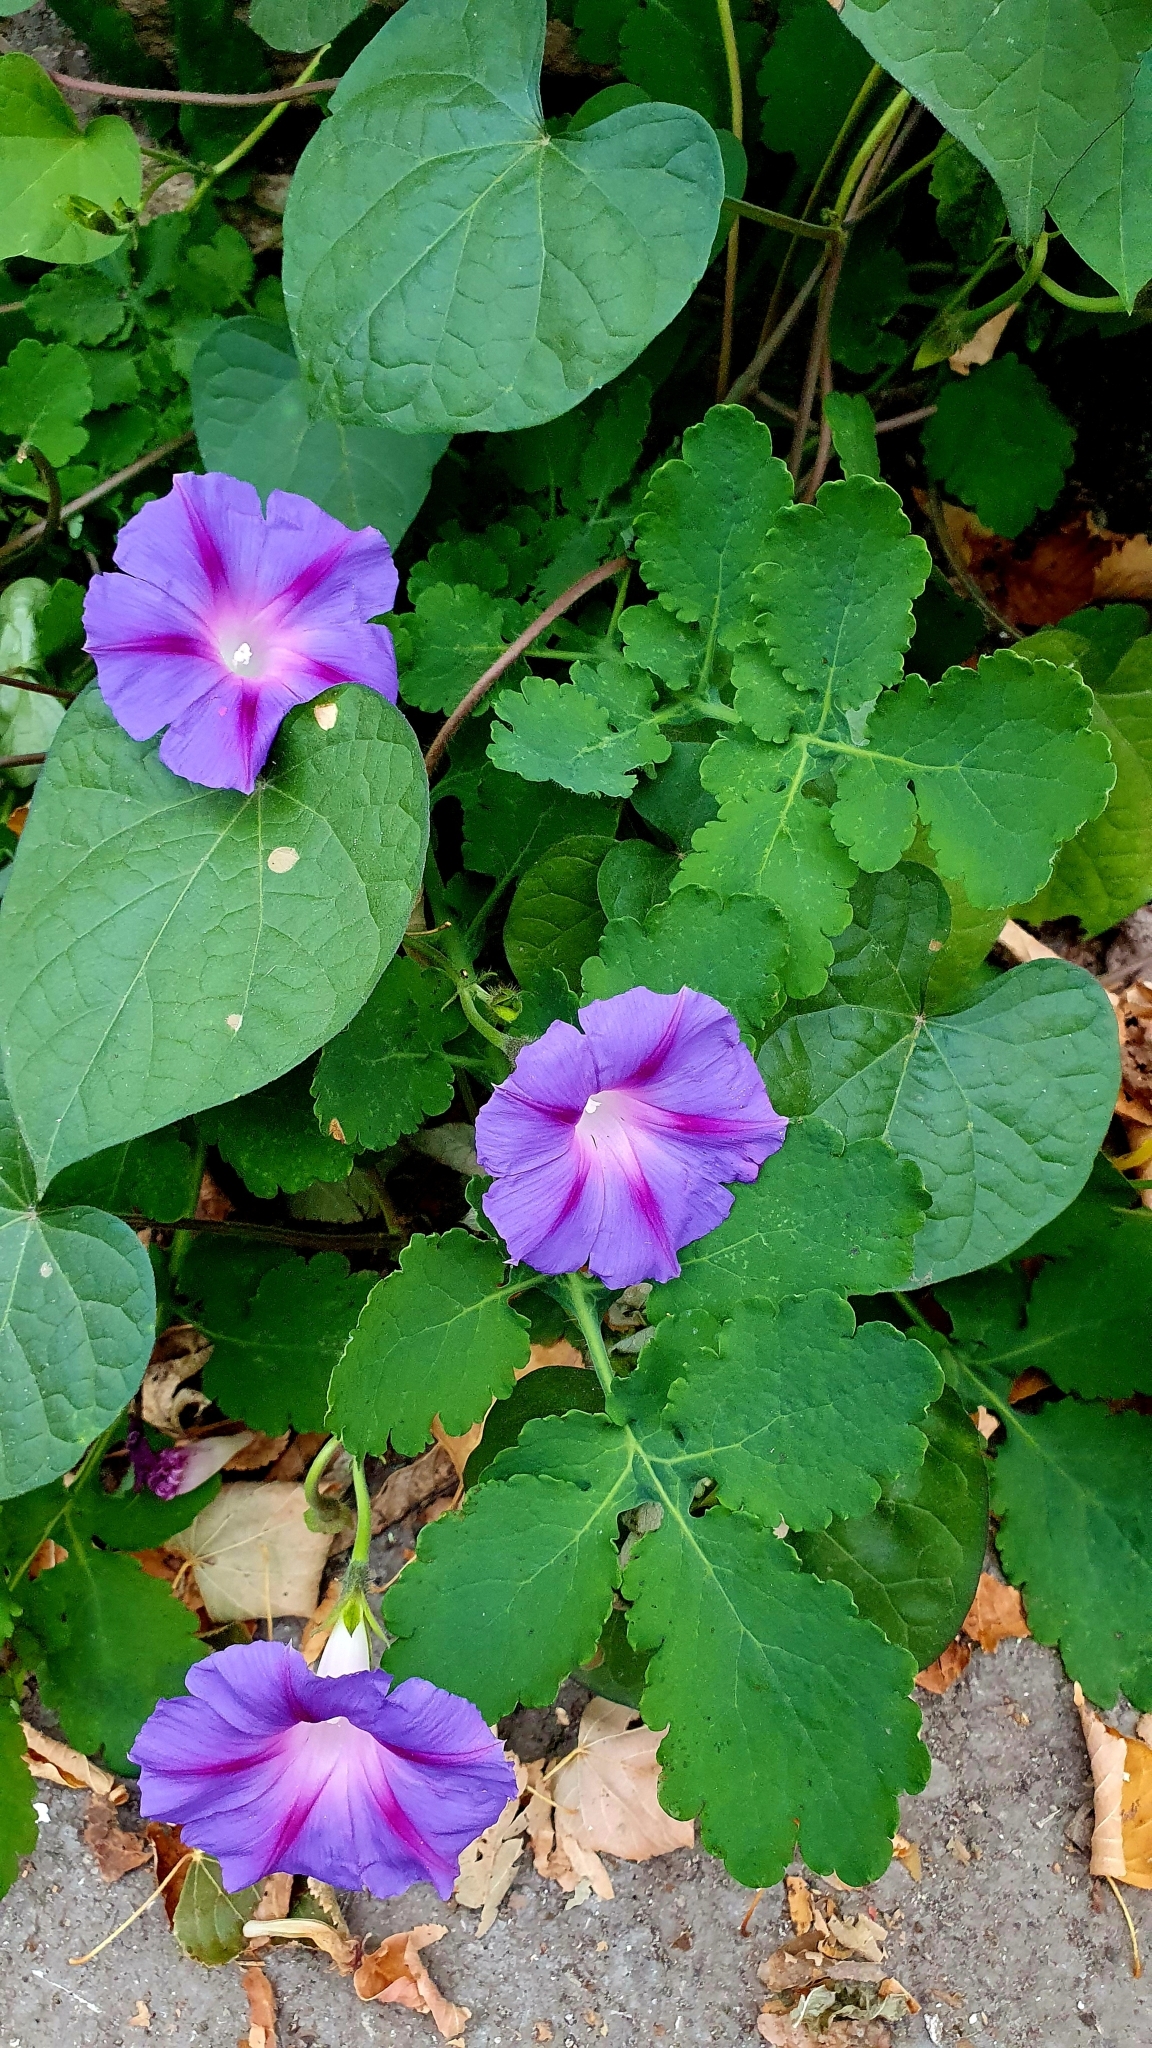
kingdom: Plantae
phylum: Tracheophyta
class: Magnoliopsida
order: Solanales
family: Convolvulaceae
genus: Ipomoea
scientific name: Ipomoea purpurea
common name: Common morning-glory
